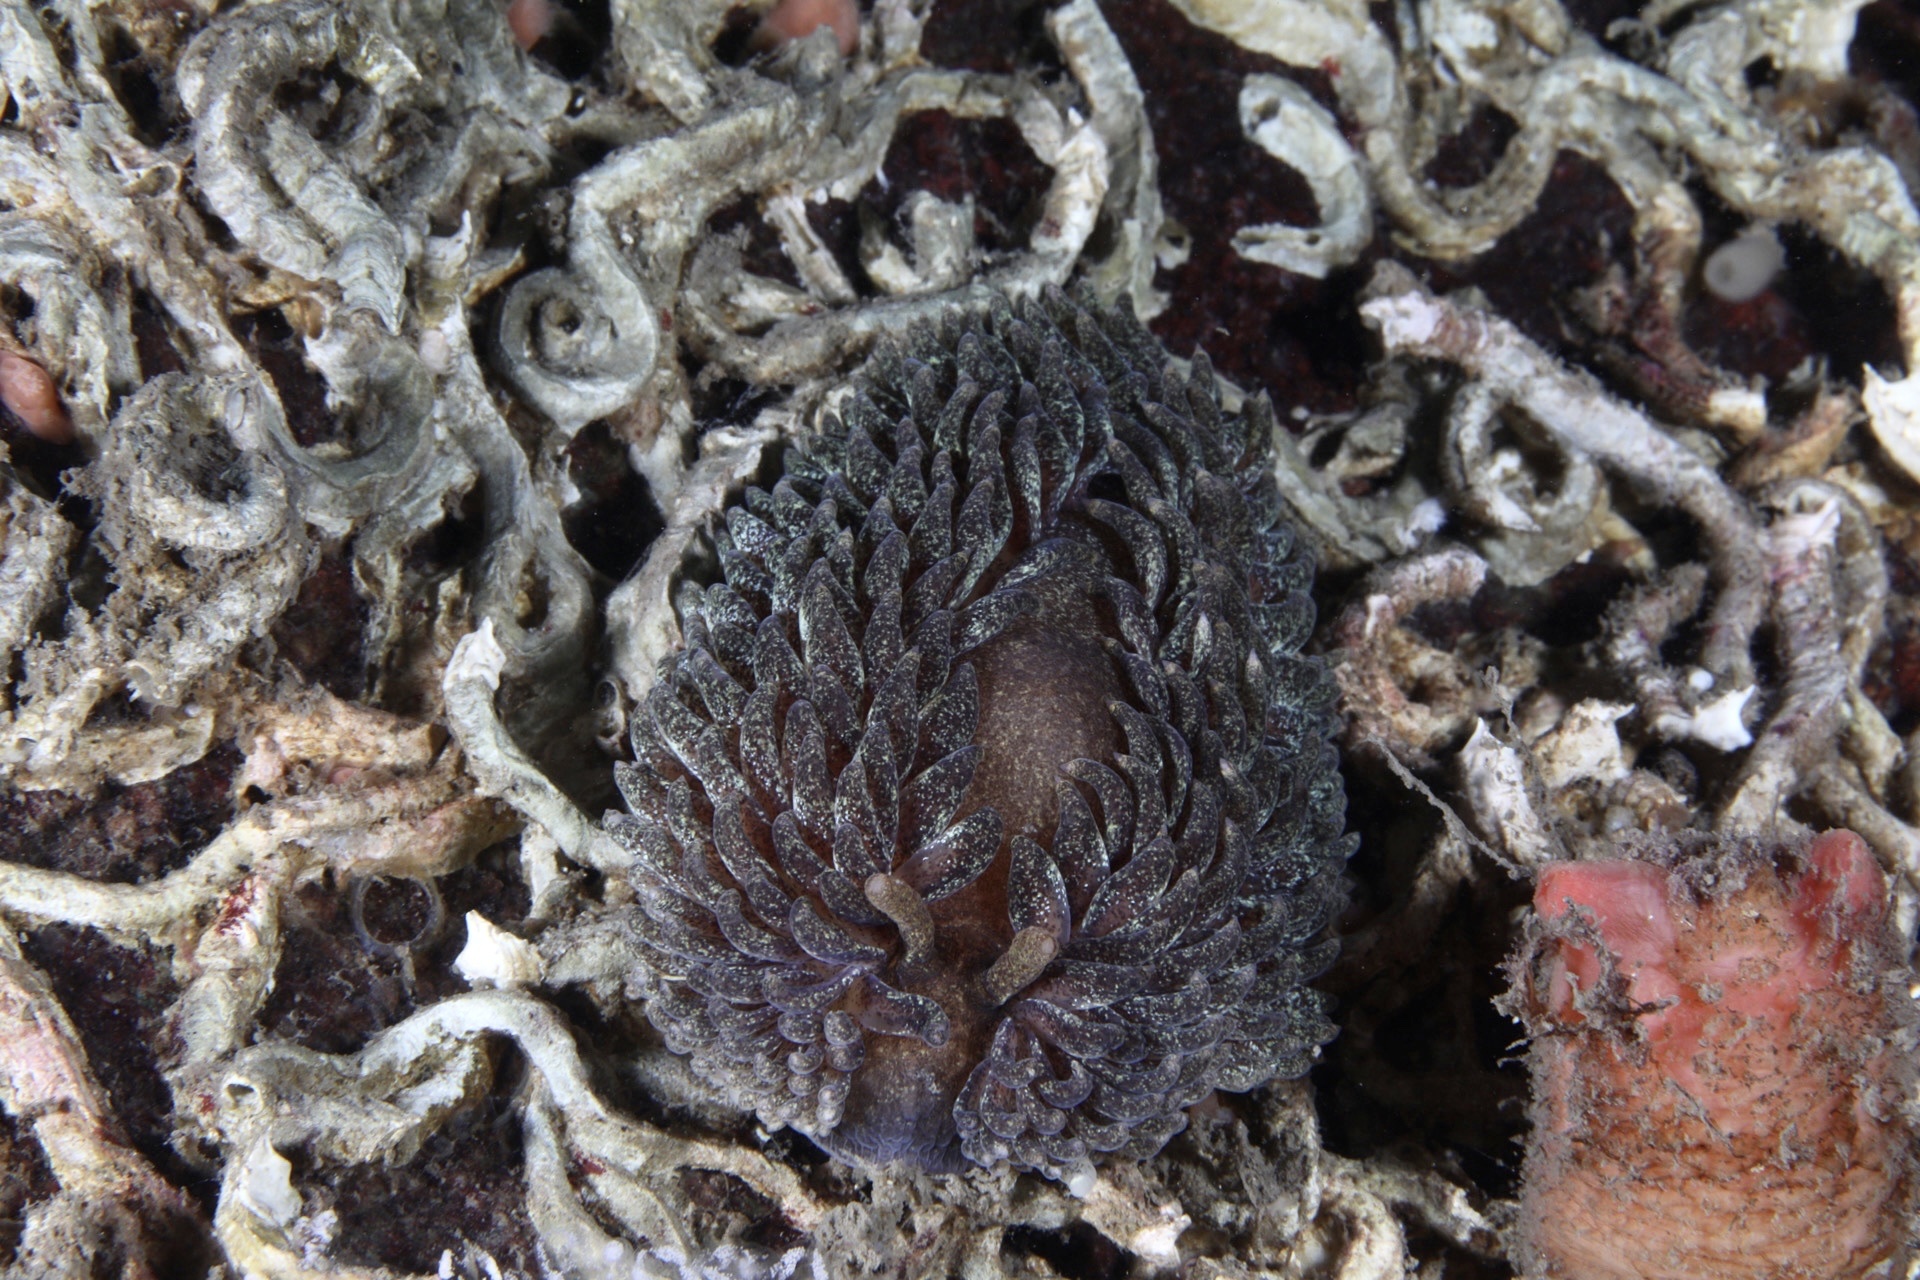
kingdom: Animalia
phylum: Mollusca
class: Gastropoda
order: Nudibranchia
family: Aeolidiidae
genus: Aeolidia
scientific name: Aeolidia papillosa
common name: Common grey sea slug
